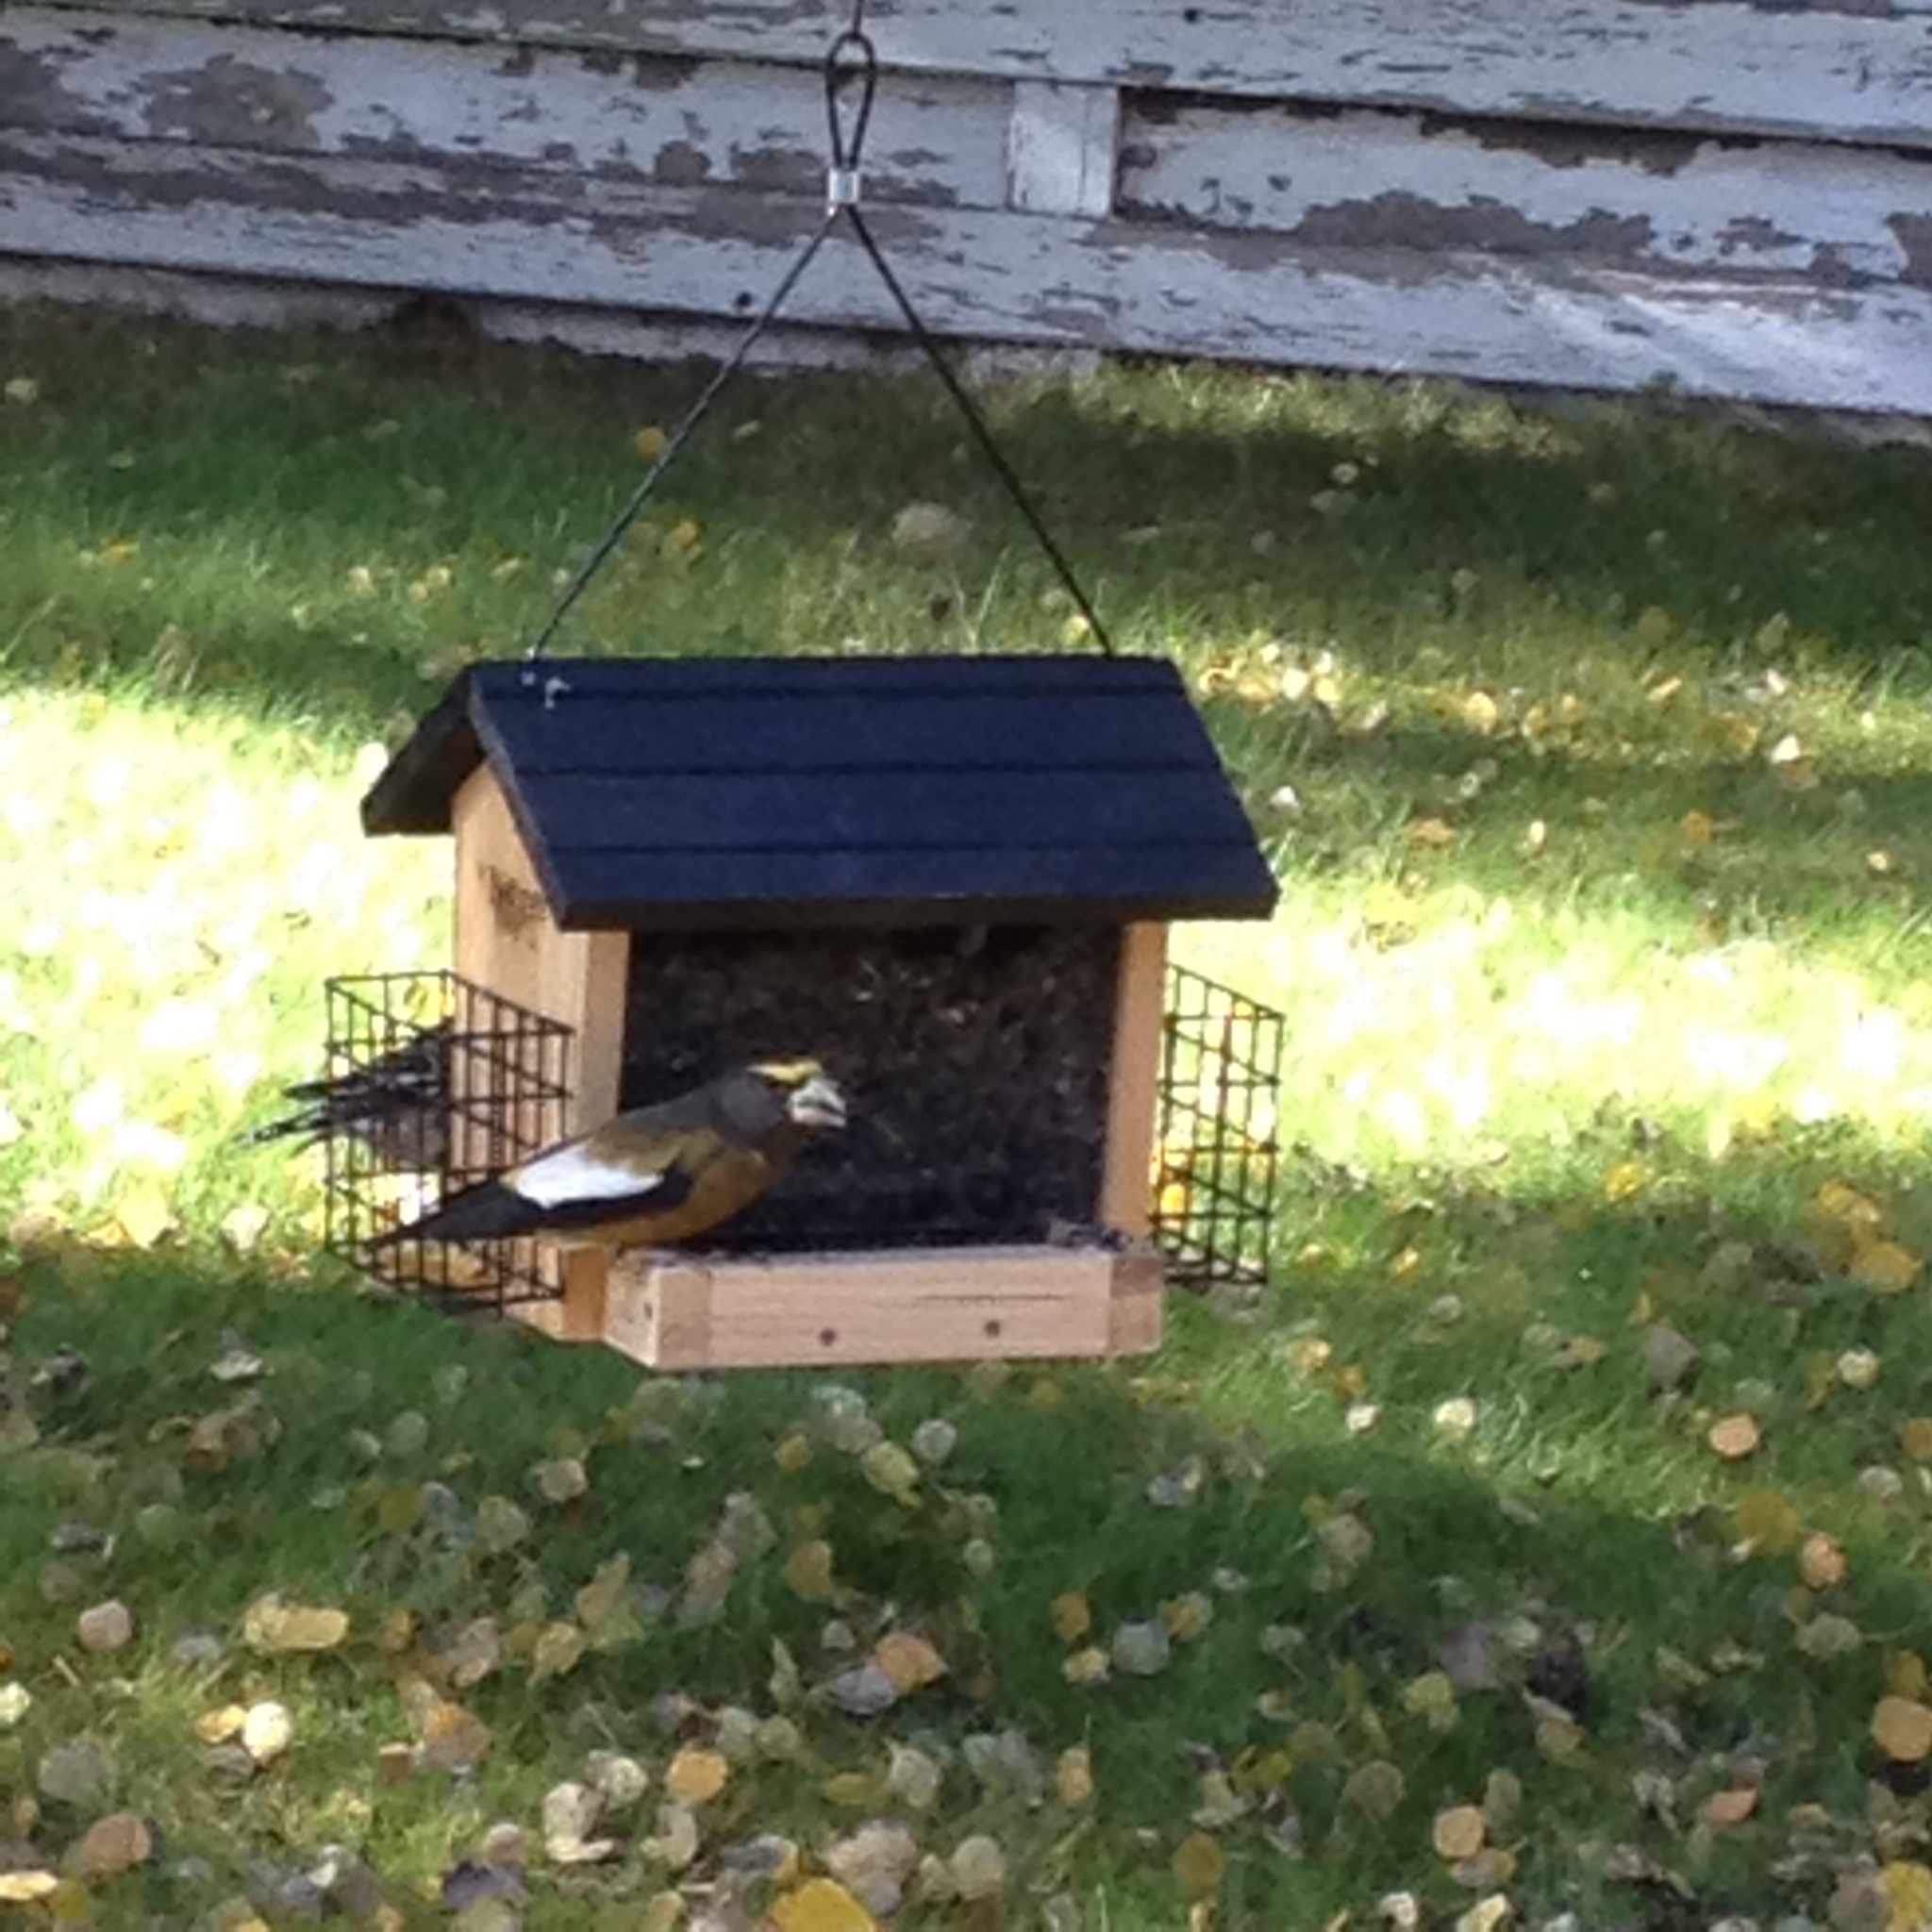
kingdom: Animalia
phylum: Chordata
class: Aves
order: Passeriformes
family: Fringillidae
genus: Hesperiphona
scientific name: Hesperiphona vespertina
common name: Evening grosbeak
